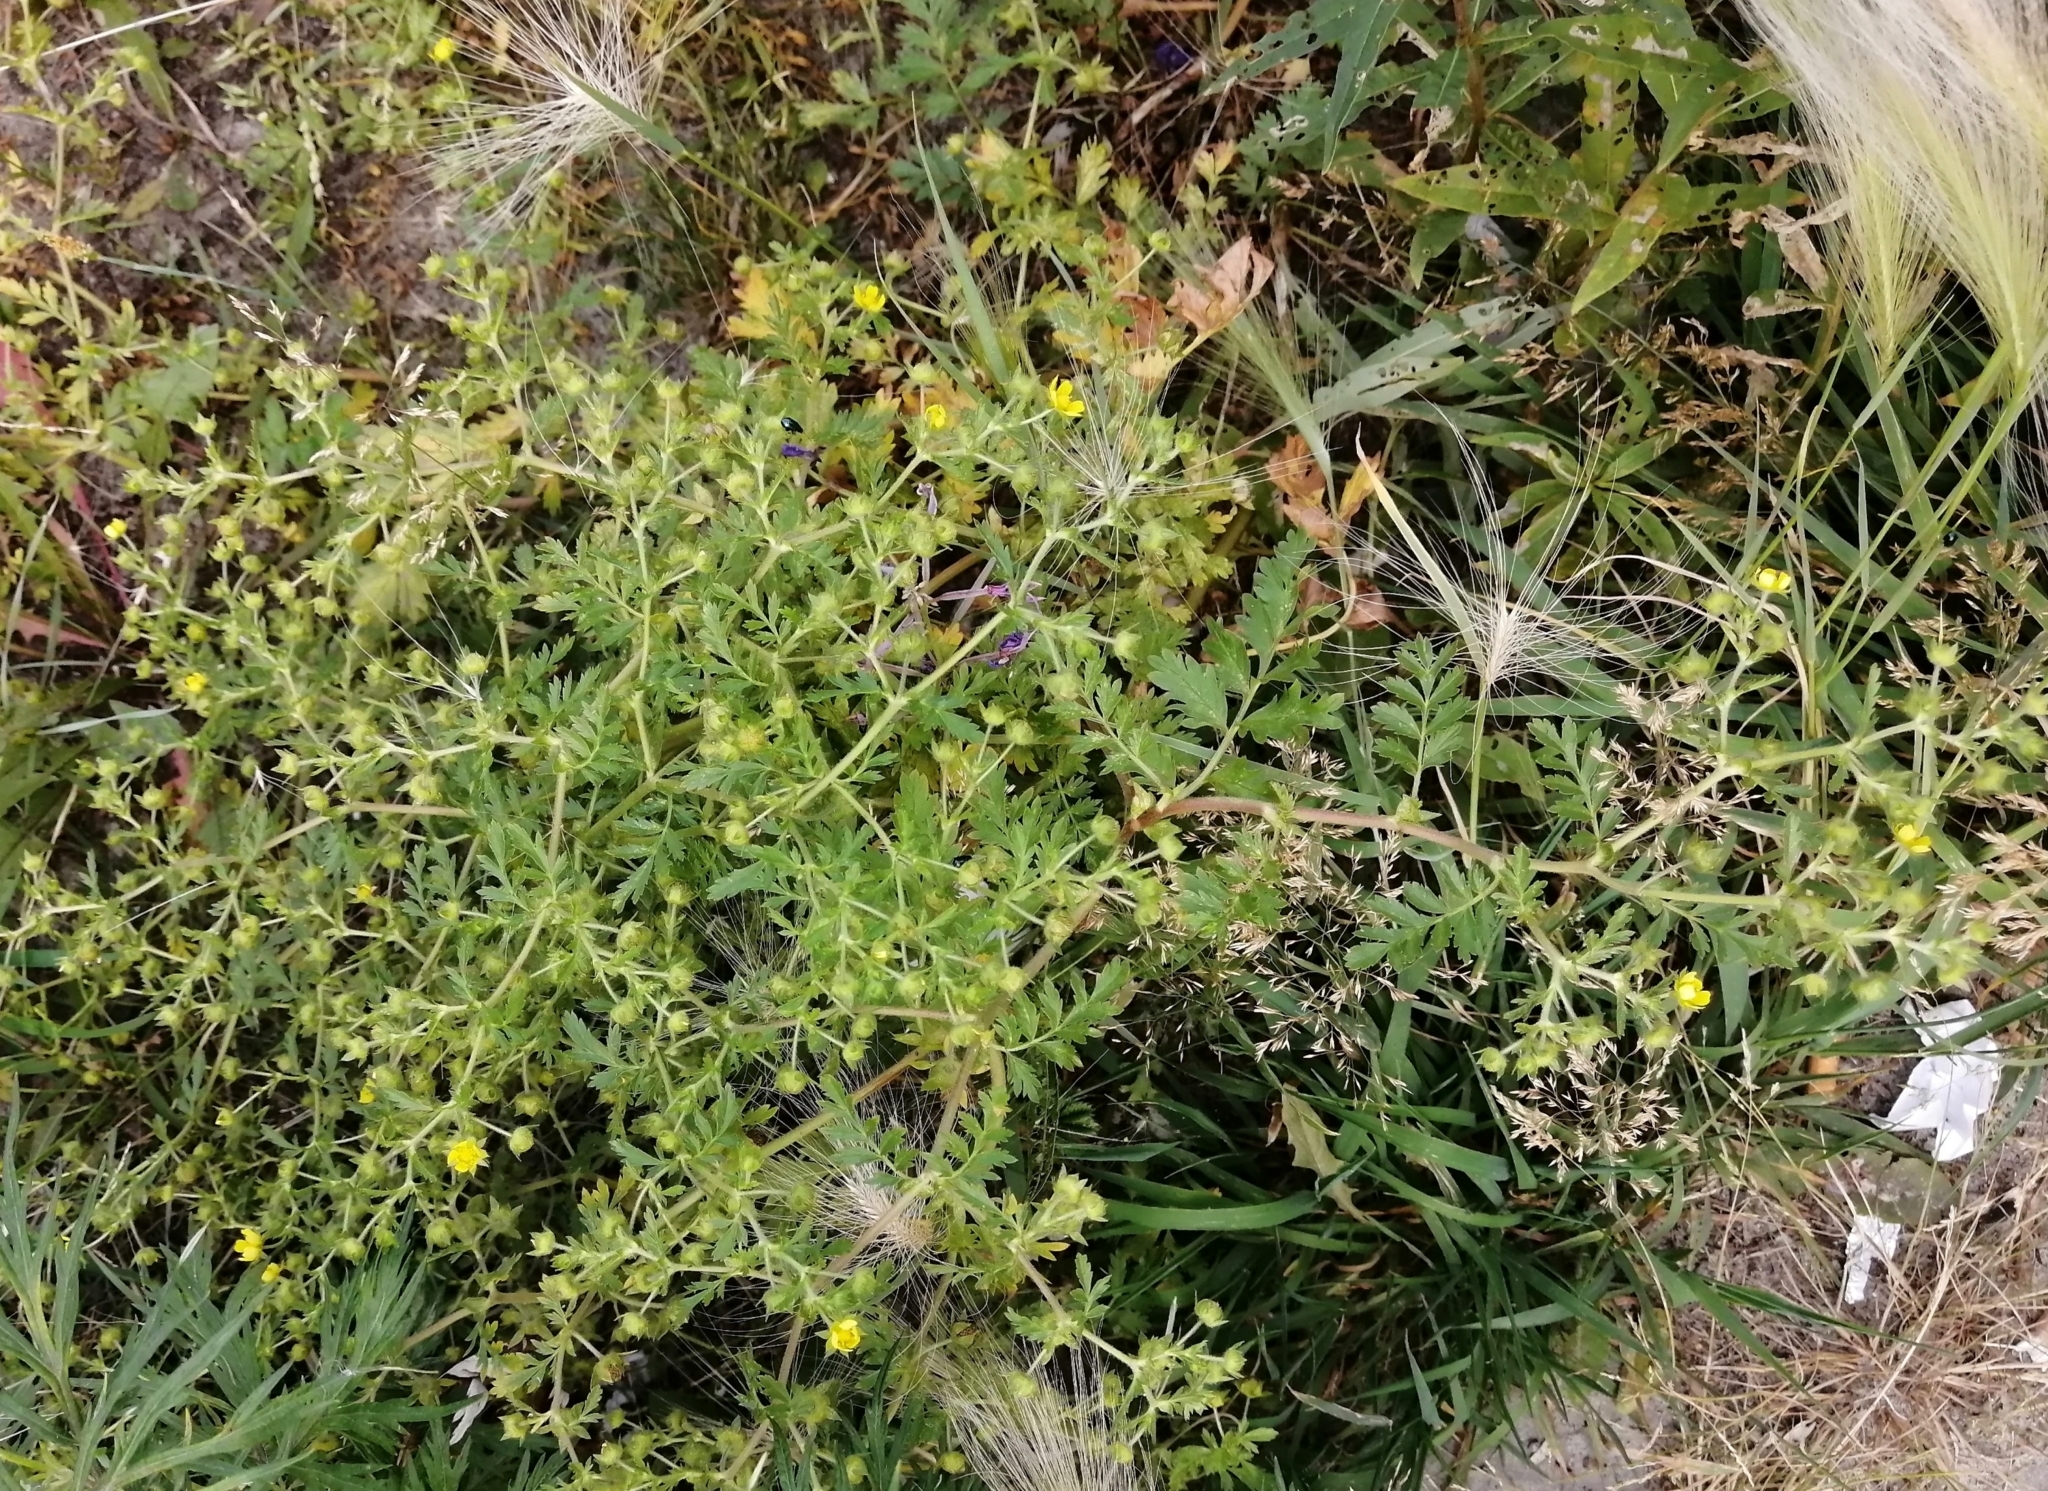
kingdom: Plantae
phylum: Tracheophyta
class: Magnoliopsida
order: Rosales
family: Rosaceae
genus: Potentilla
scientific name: Potentilla supina
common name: Prostrate cinquefoil
